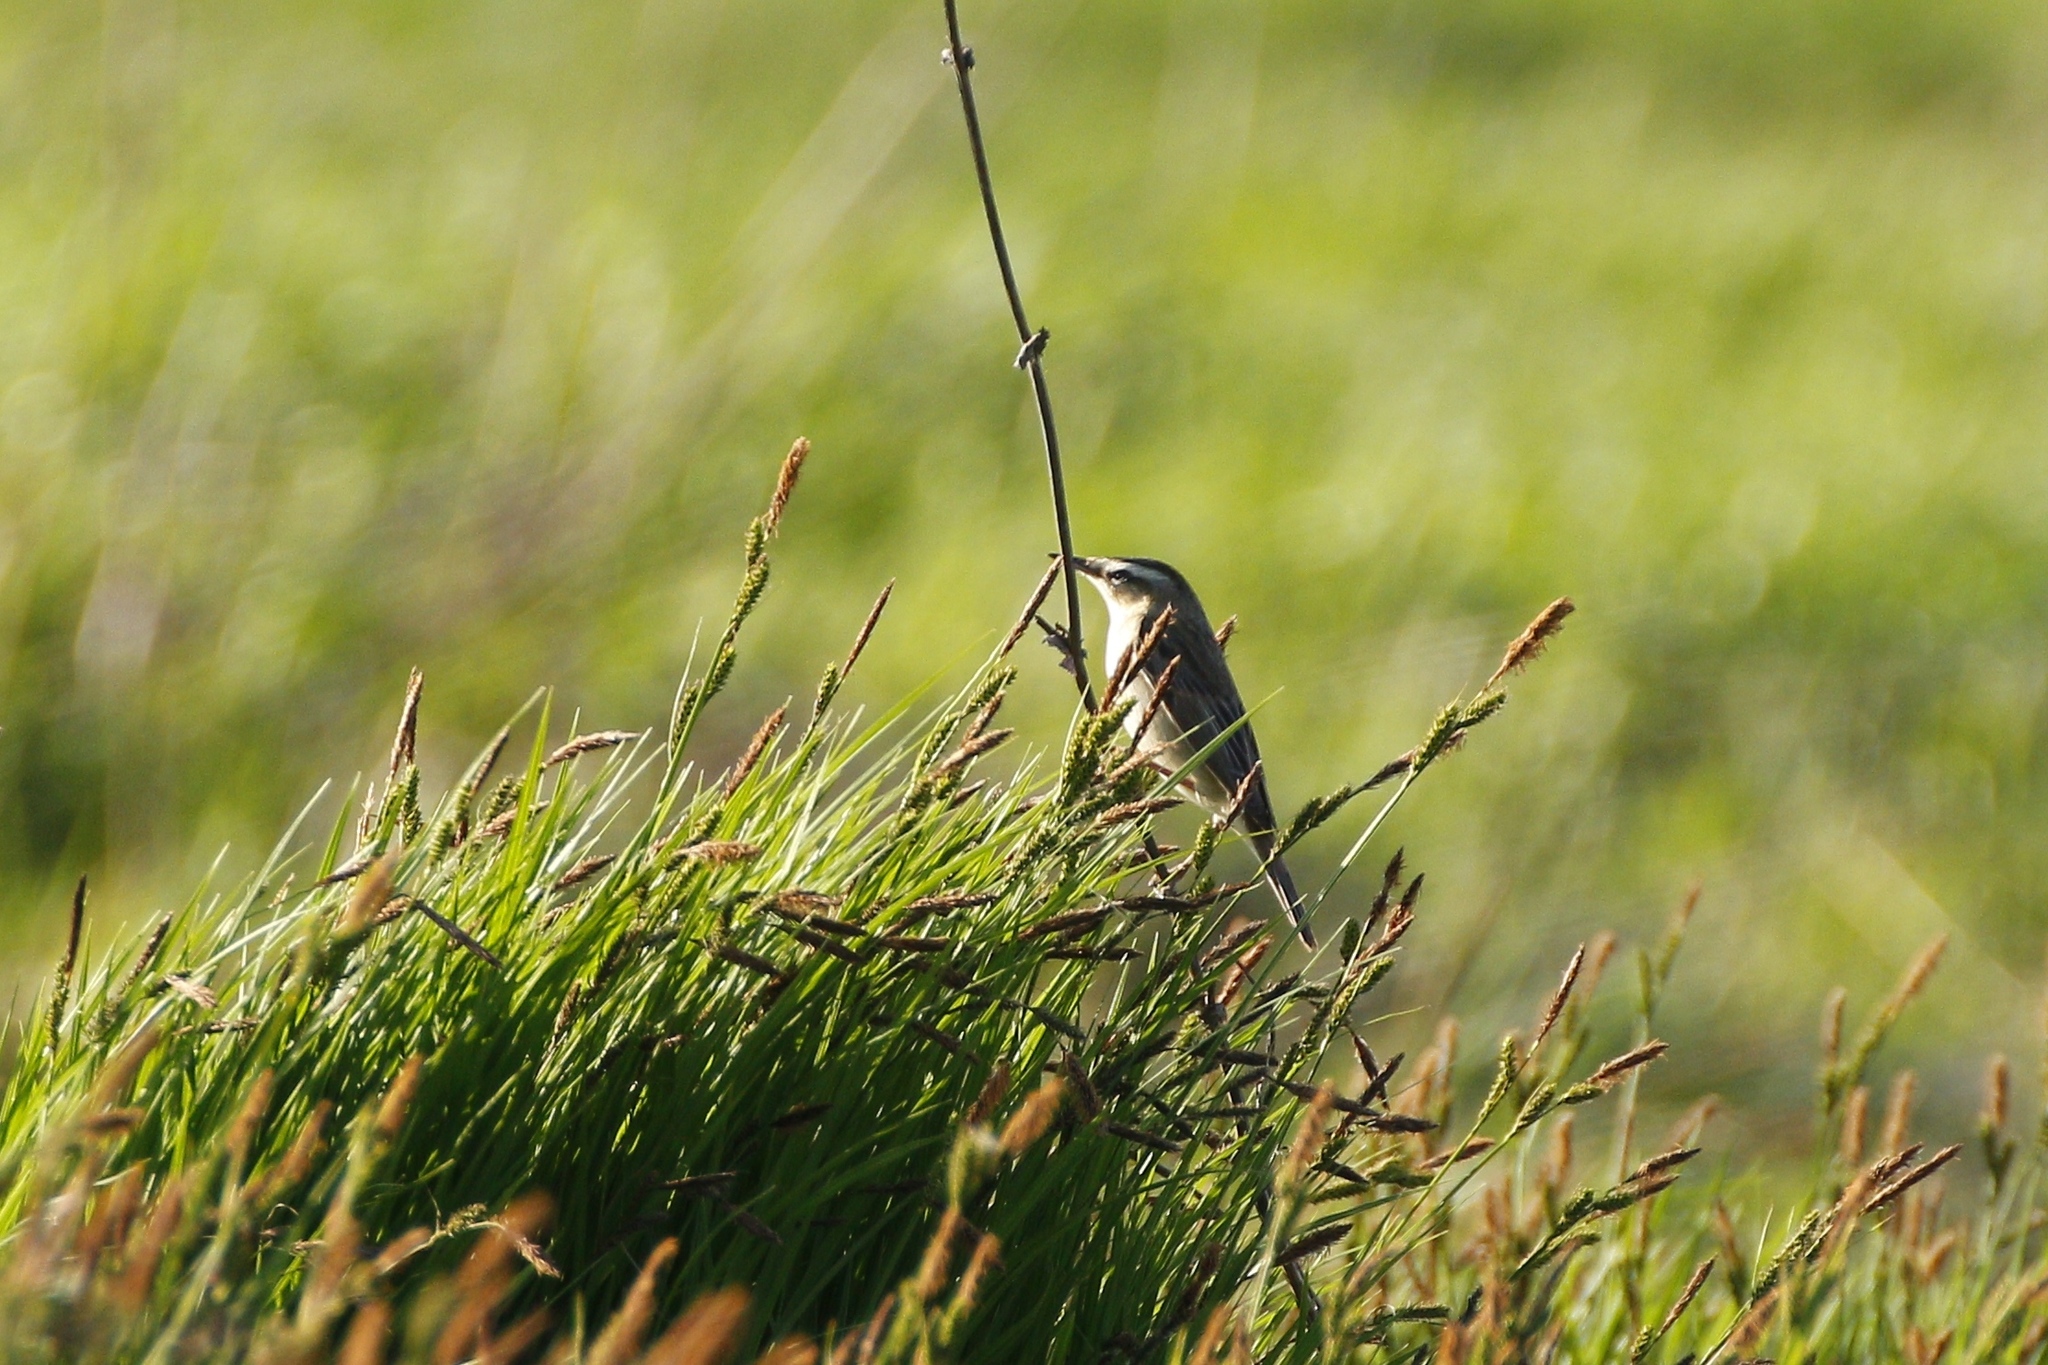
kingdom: Animalia
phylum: Chordata
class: Aves
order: Passeriformes
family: Acrocephalidae
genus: Acrocephalus
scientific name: Acrocephalus schoenobaenus
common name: Sedge warbler
